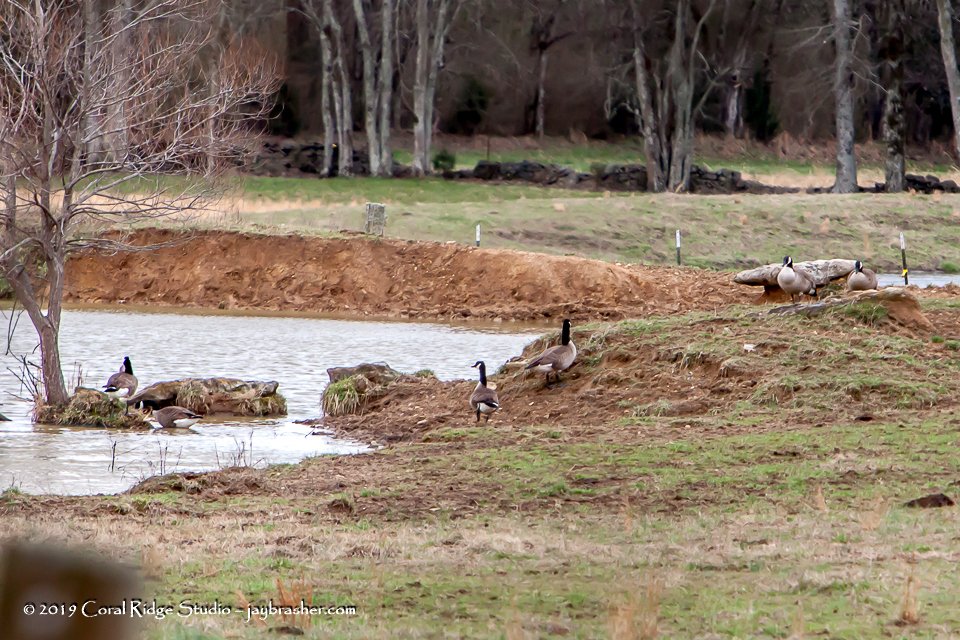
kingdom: Animalia
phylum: Chordata
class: Aves
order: Anseriformes
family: Anatidae
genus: Branta
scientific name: Branta canadensis
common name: Canada goose
